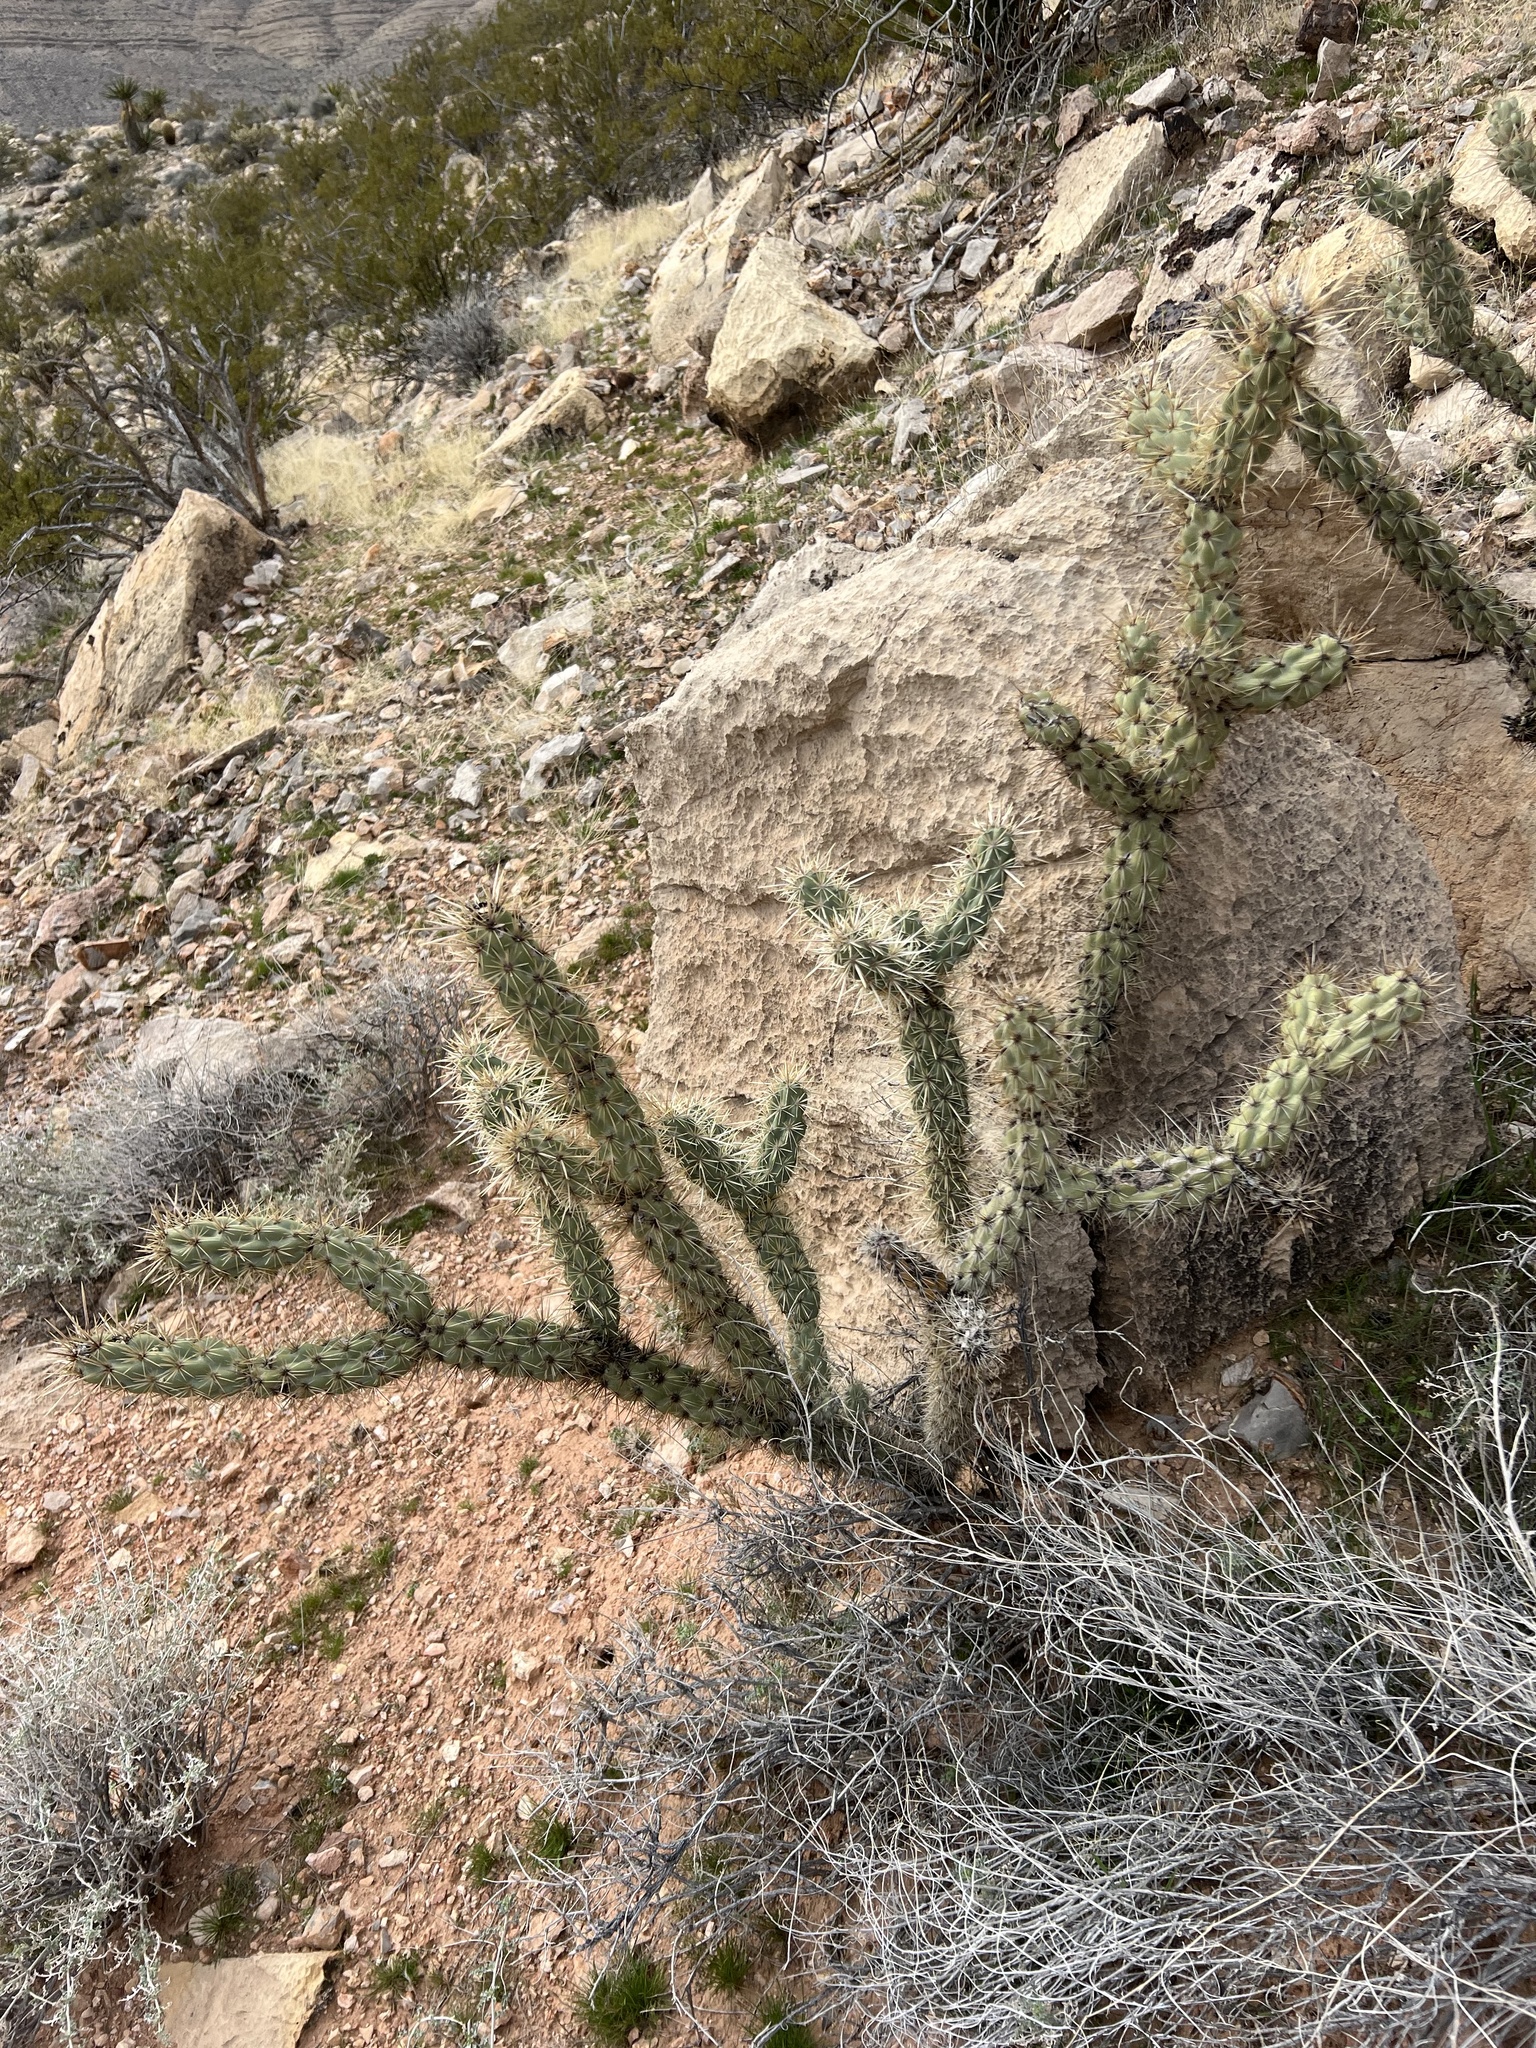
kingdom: Plantae
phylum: Tracheophyta
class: Magnoliopsida
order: Caryophyllales
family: Cactaceae
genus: Cylindropuntia
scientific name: Cylindropuntia acanthocarpa
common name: Buckhorn cholla
